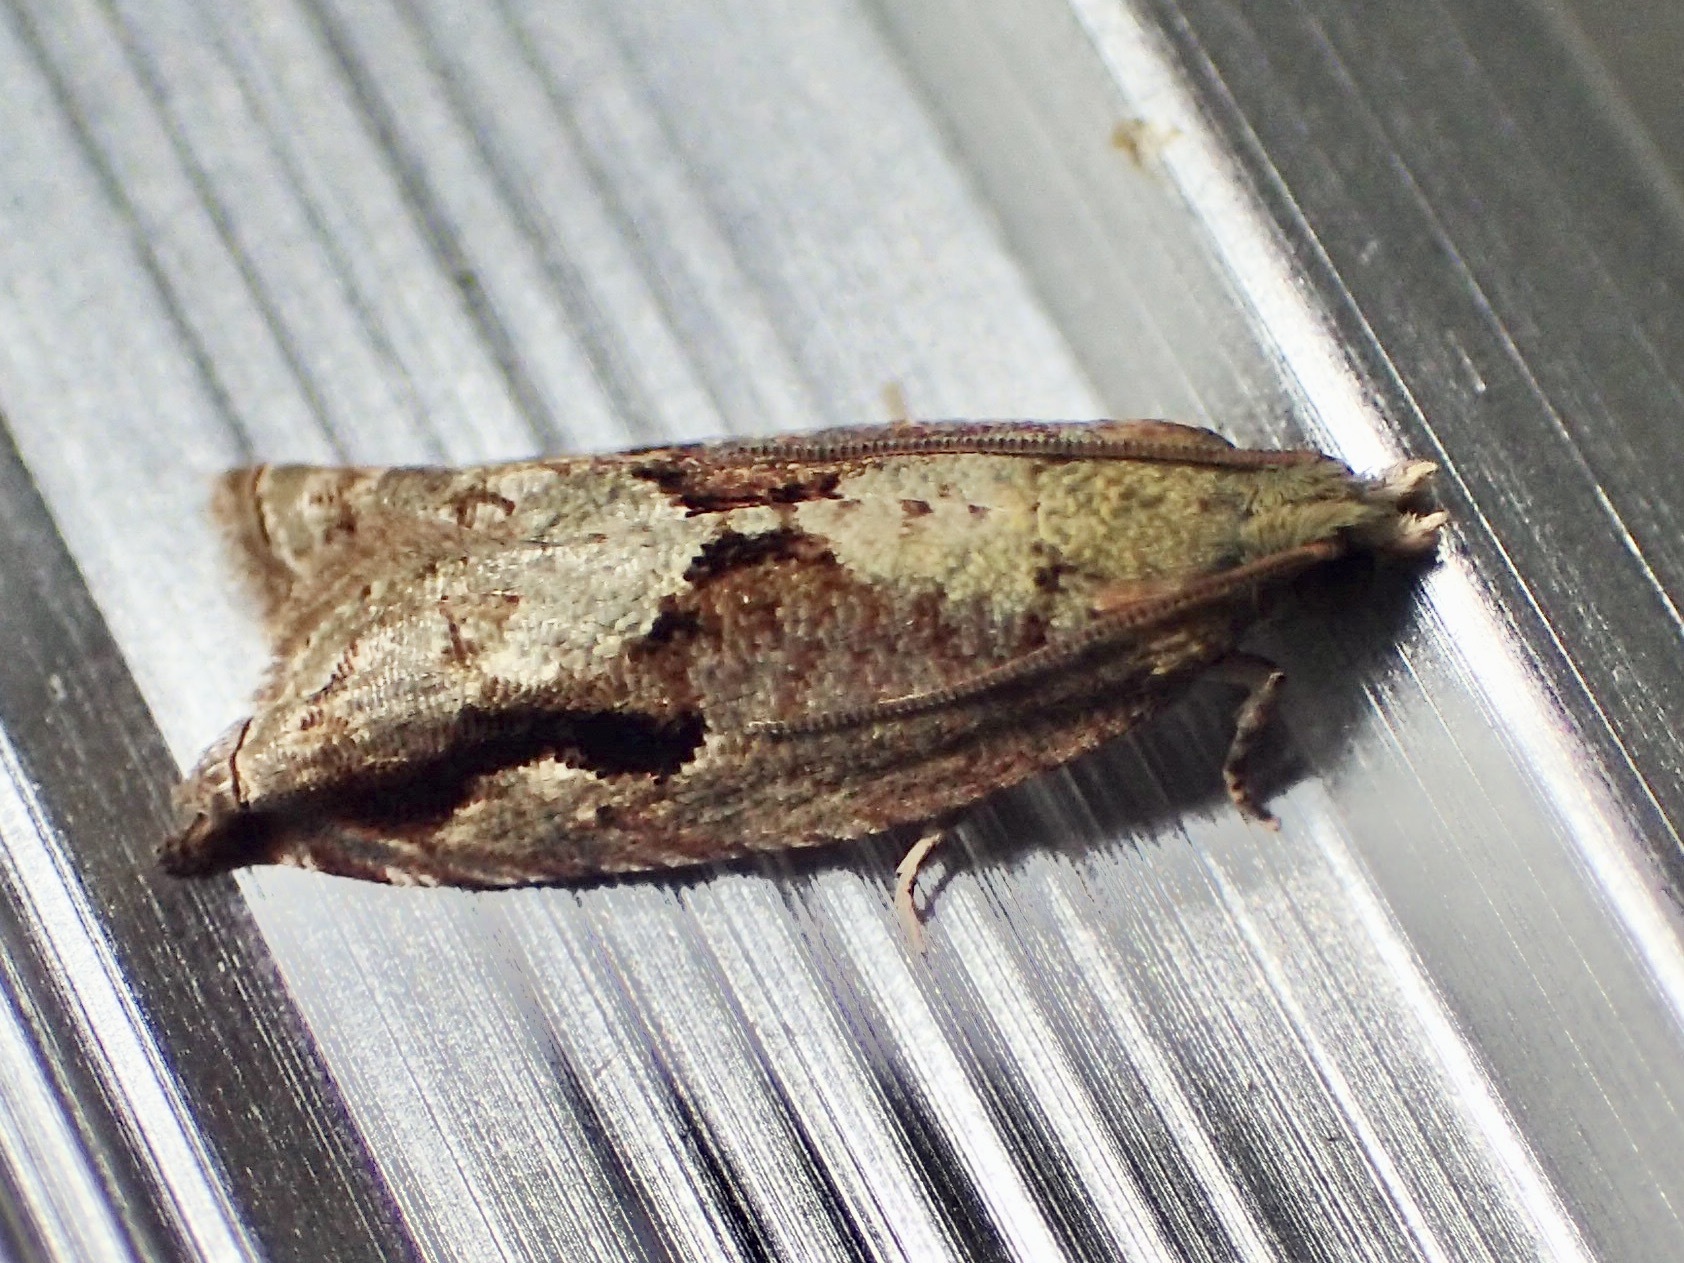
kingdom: Animalia
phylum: Arthropoda
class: Insecta
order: Lepidoptera
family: Tortricidae
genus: Rhopobota
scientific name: Rhopobota hortaria
